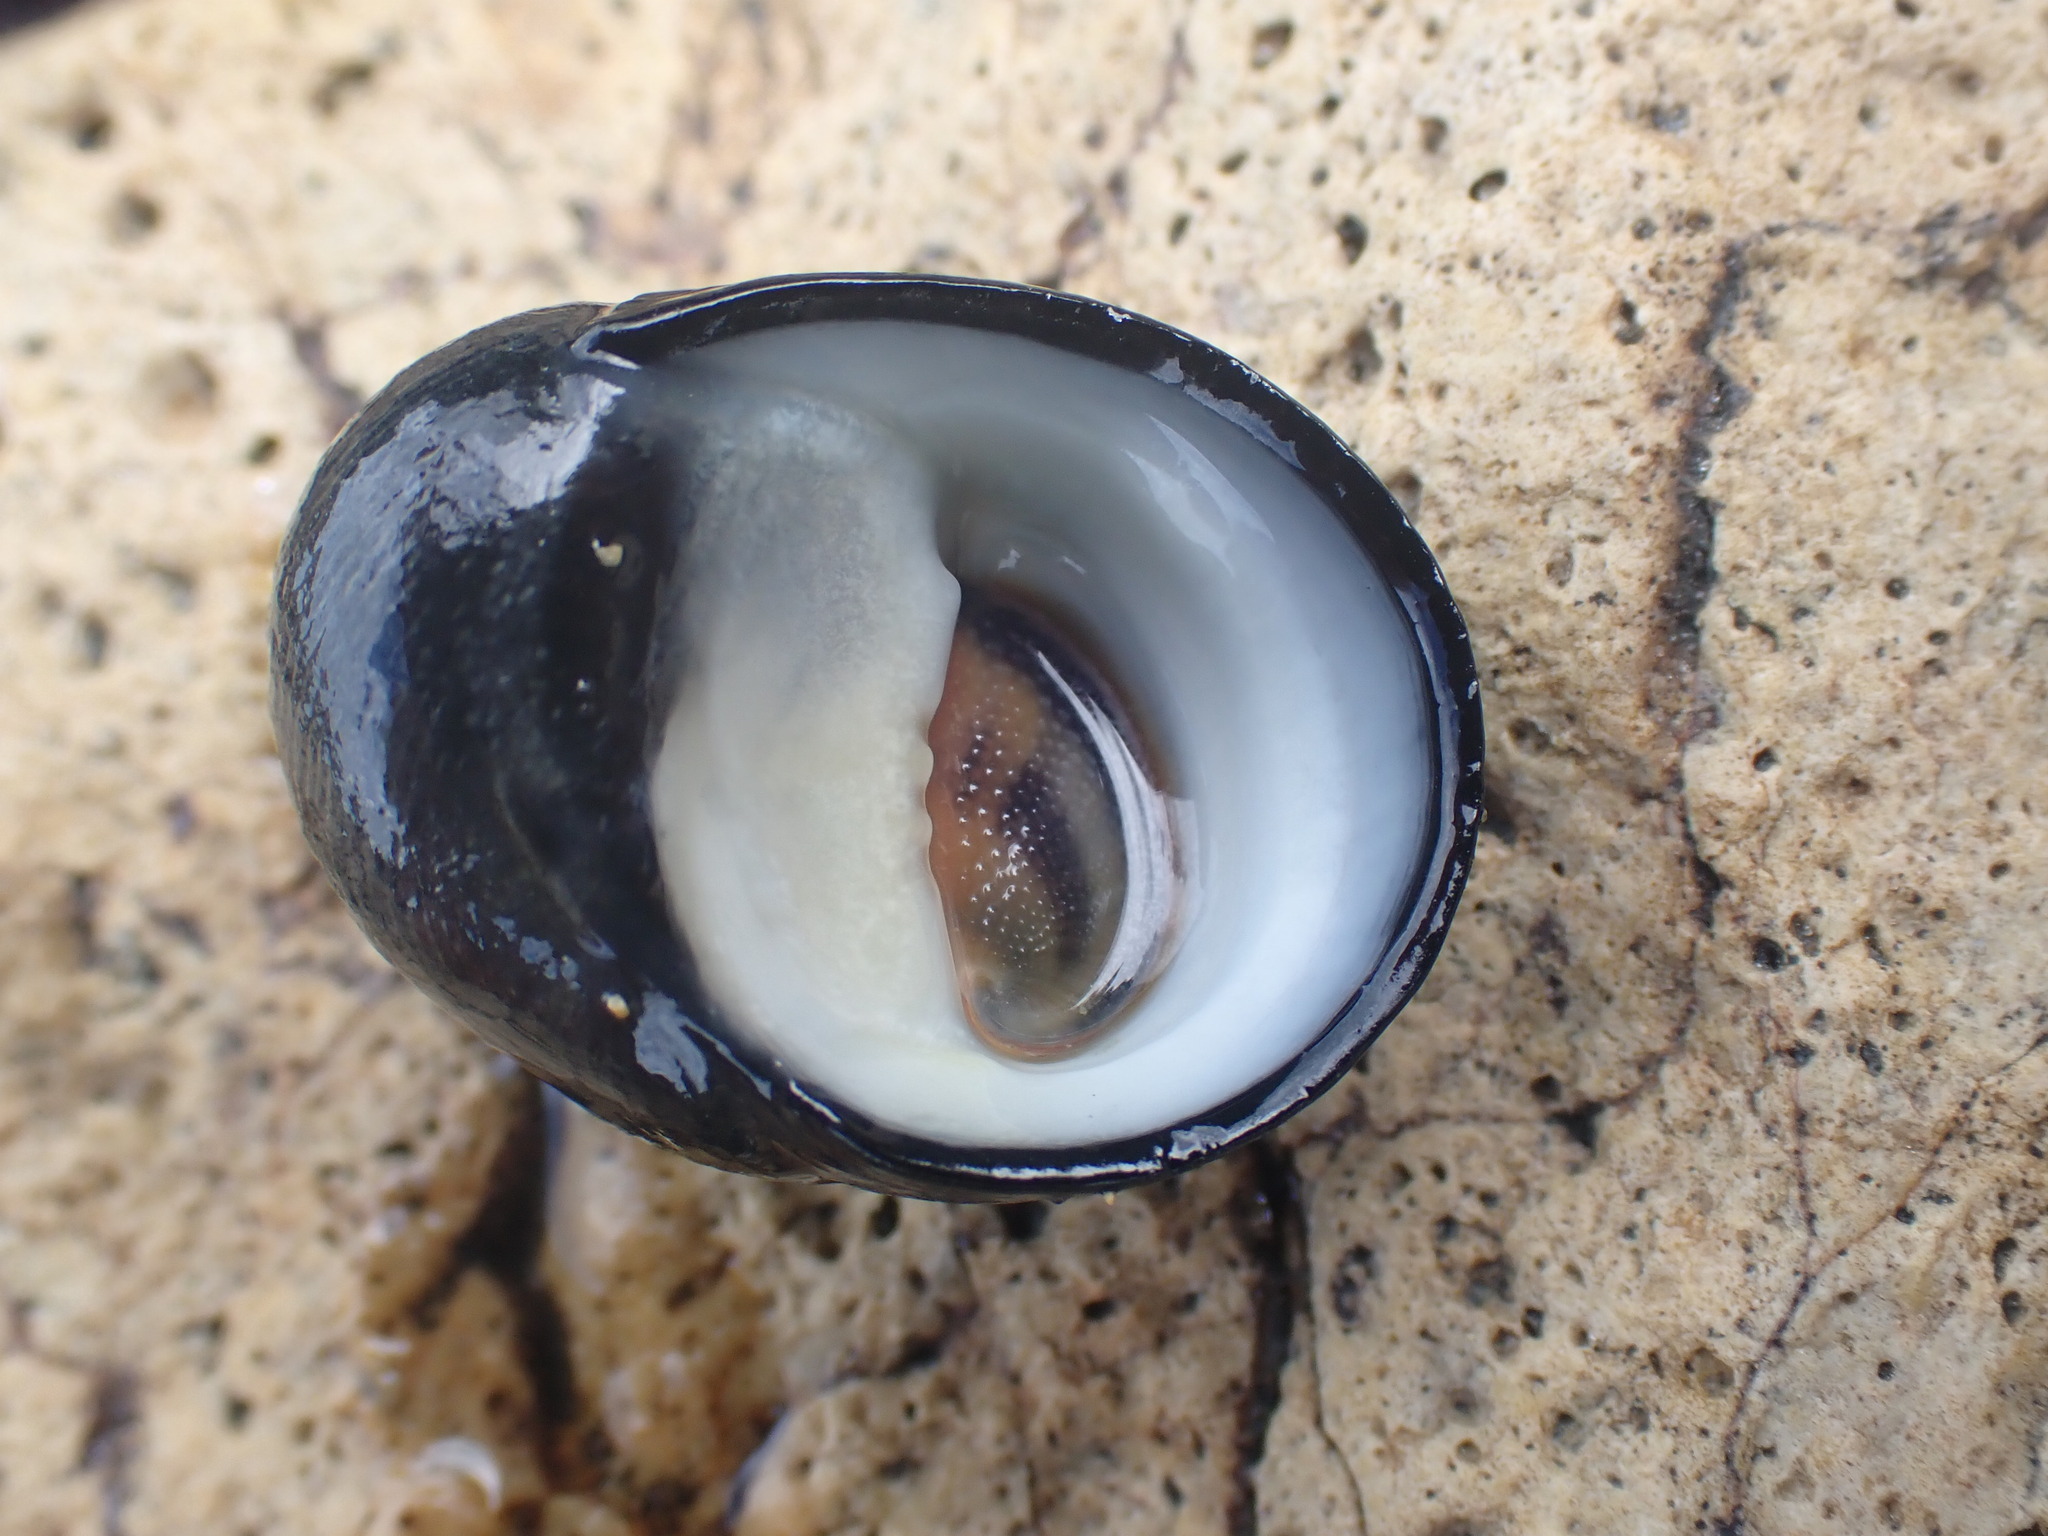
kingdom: Animalia
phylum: Mollusca
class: Gastropoda
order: Cycloneritida
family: Neritidae
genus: Nerita
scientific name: Nerita melanotragus
